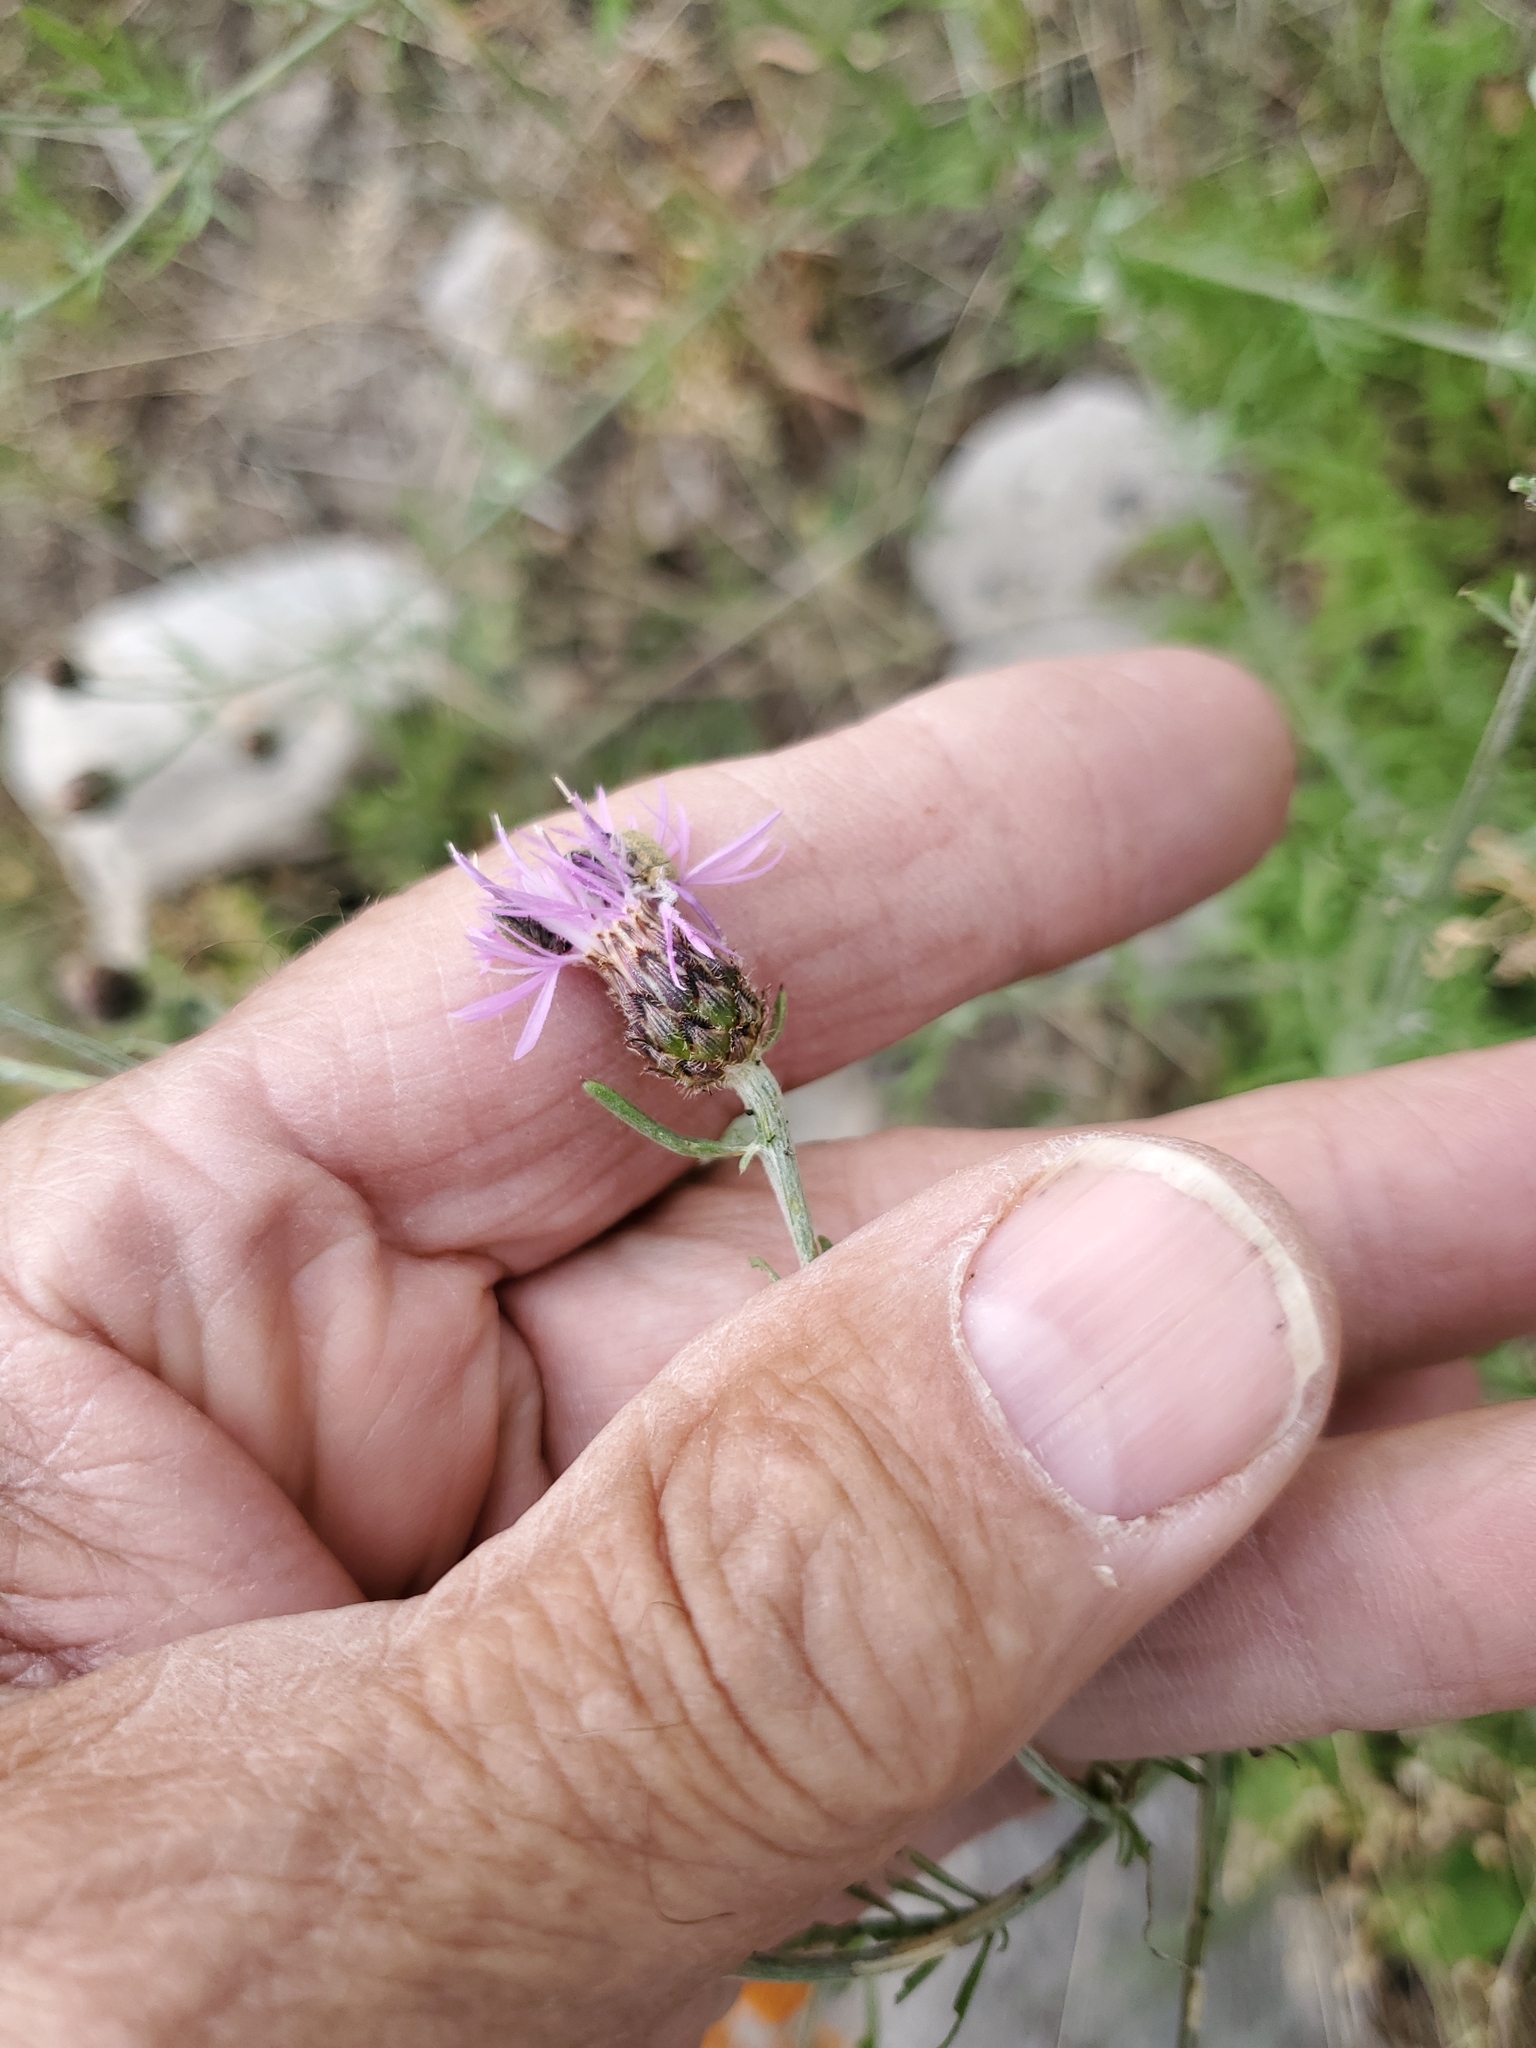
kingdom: Plantae
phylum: Tracheophyta
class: Magnoliopsida
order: Asterales
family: Asteraceae
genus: Centaurea
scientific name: Centaurea stoebe
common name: Spotted knapweed
